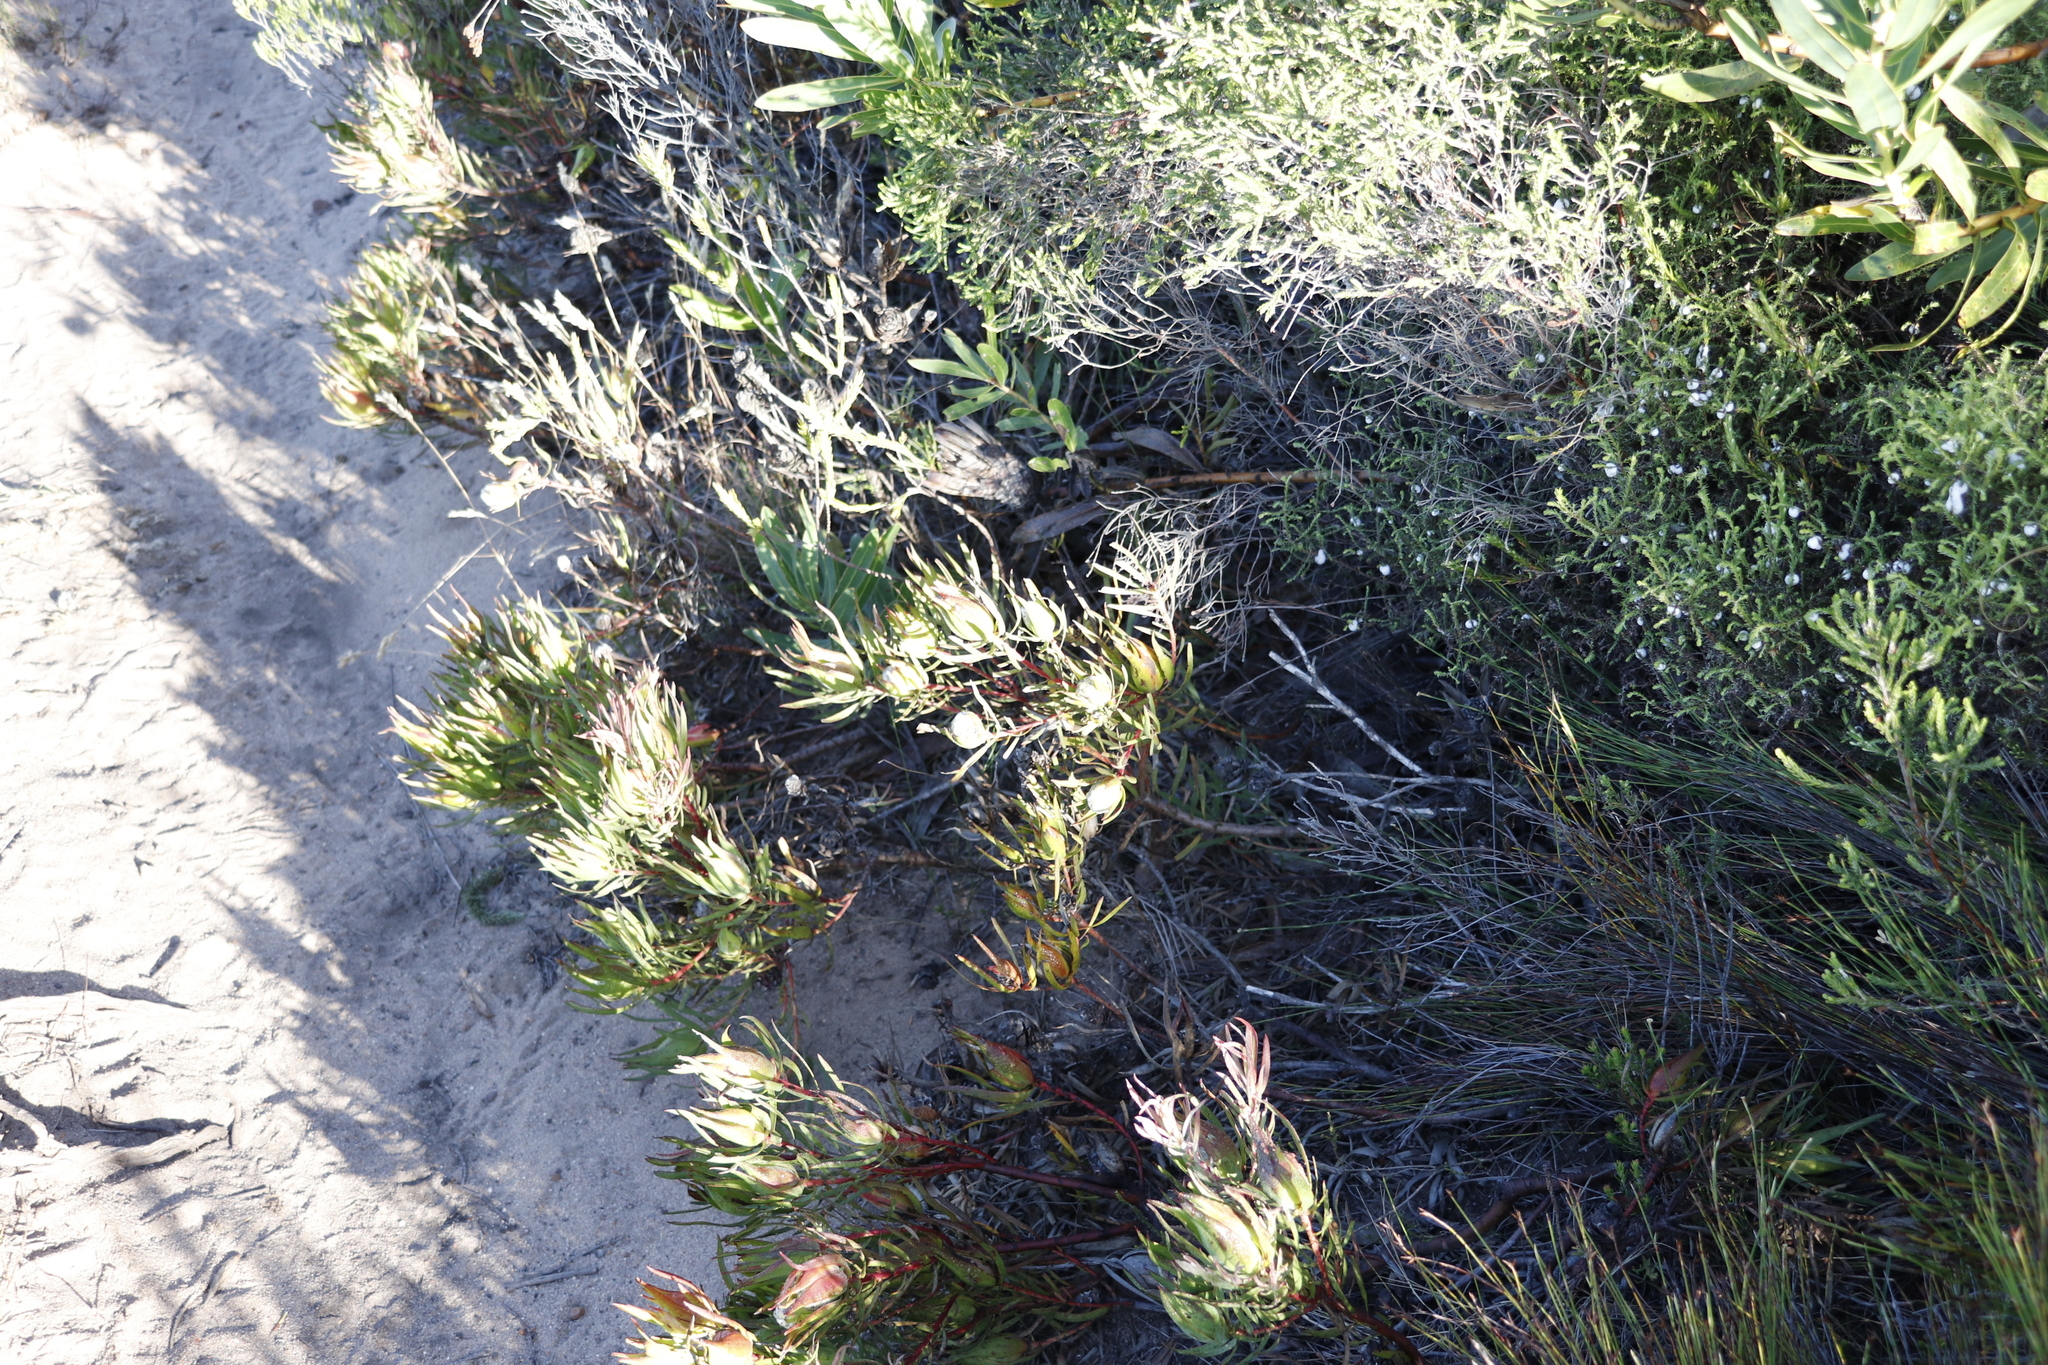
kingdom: Plantae
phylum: Tracheophyta
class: Magnoliopsida
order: Proteales
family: Proteaceae
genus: Leucadendron
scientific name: Leucadendron salignum
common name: Common sunshine conebush
